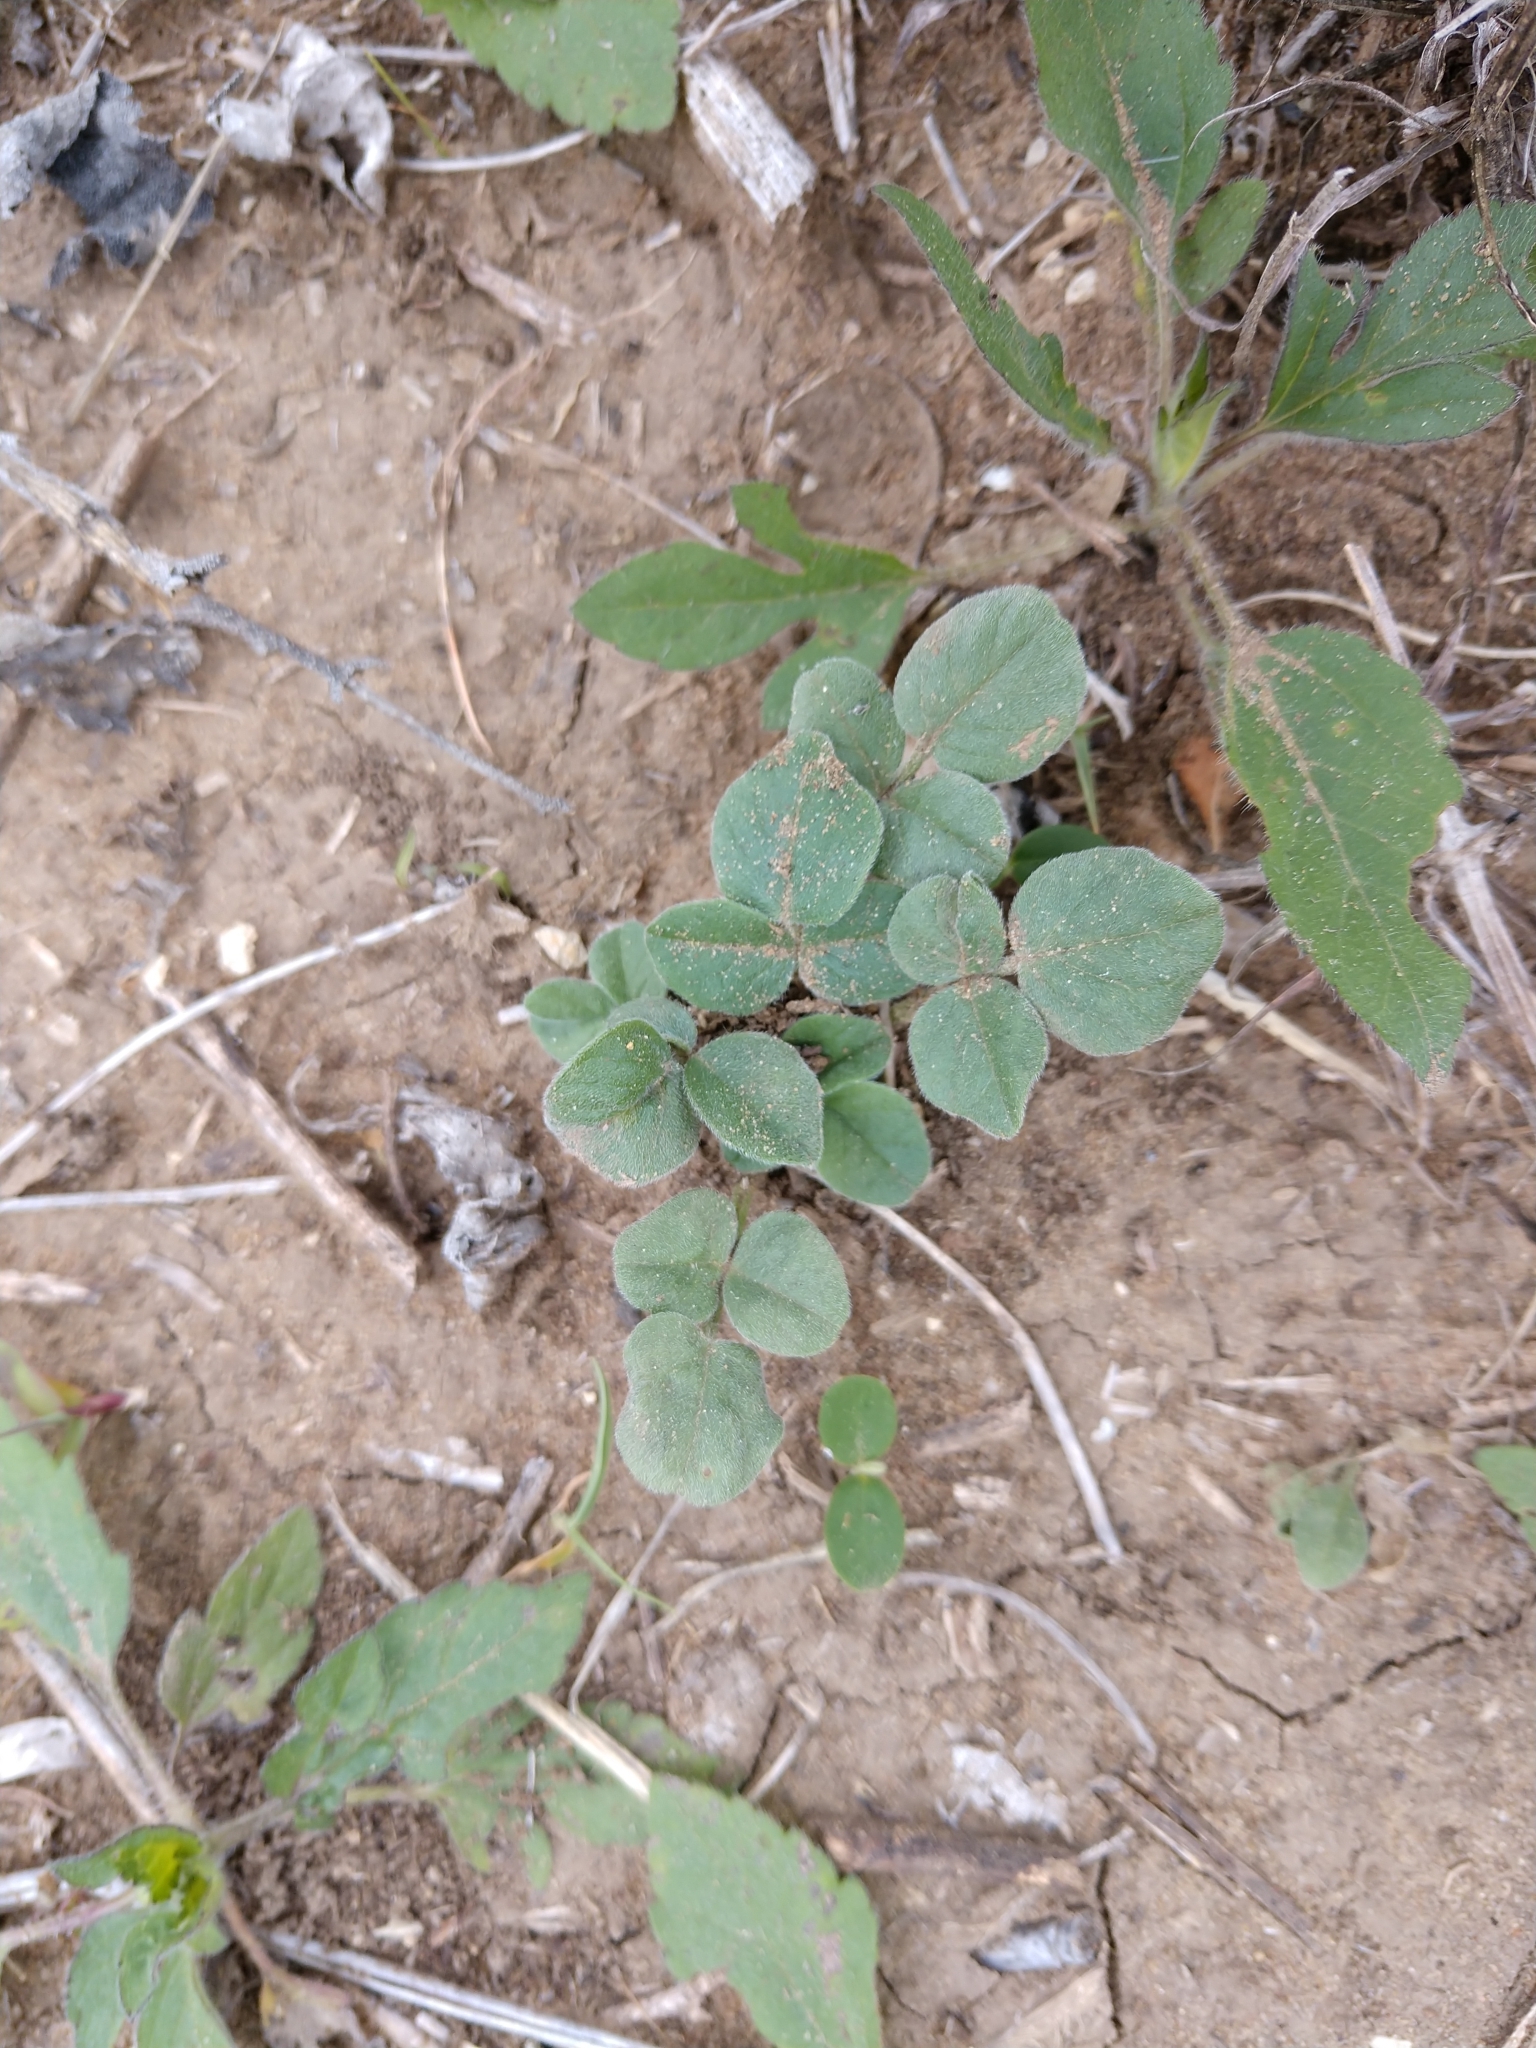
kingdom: Plantae
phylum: Tracheophyta
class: Magnoliopsida
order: Fabales
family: Fabaceae
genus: Pediomelum
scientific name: Pediomelum rhombifolium
